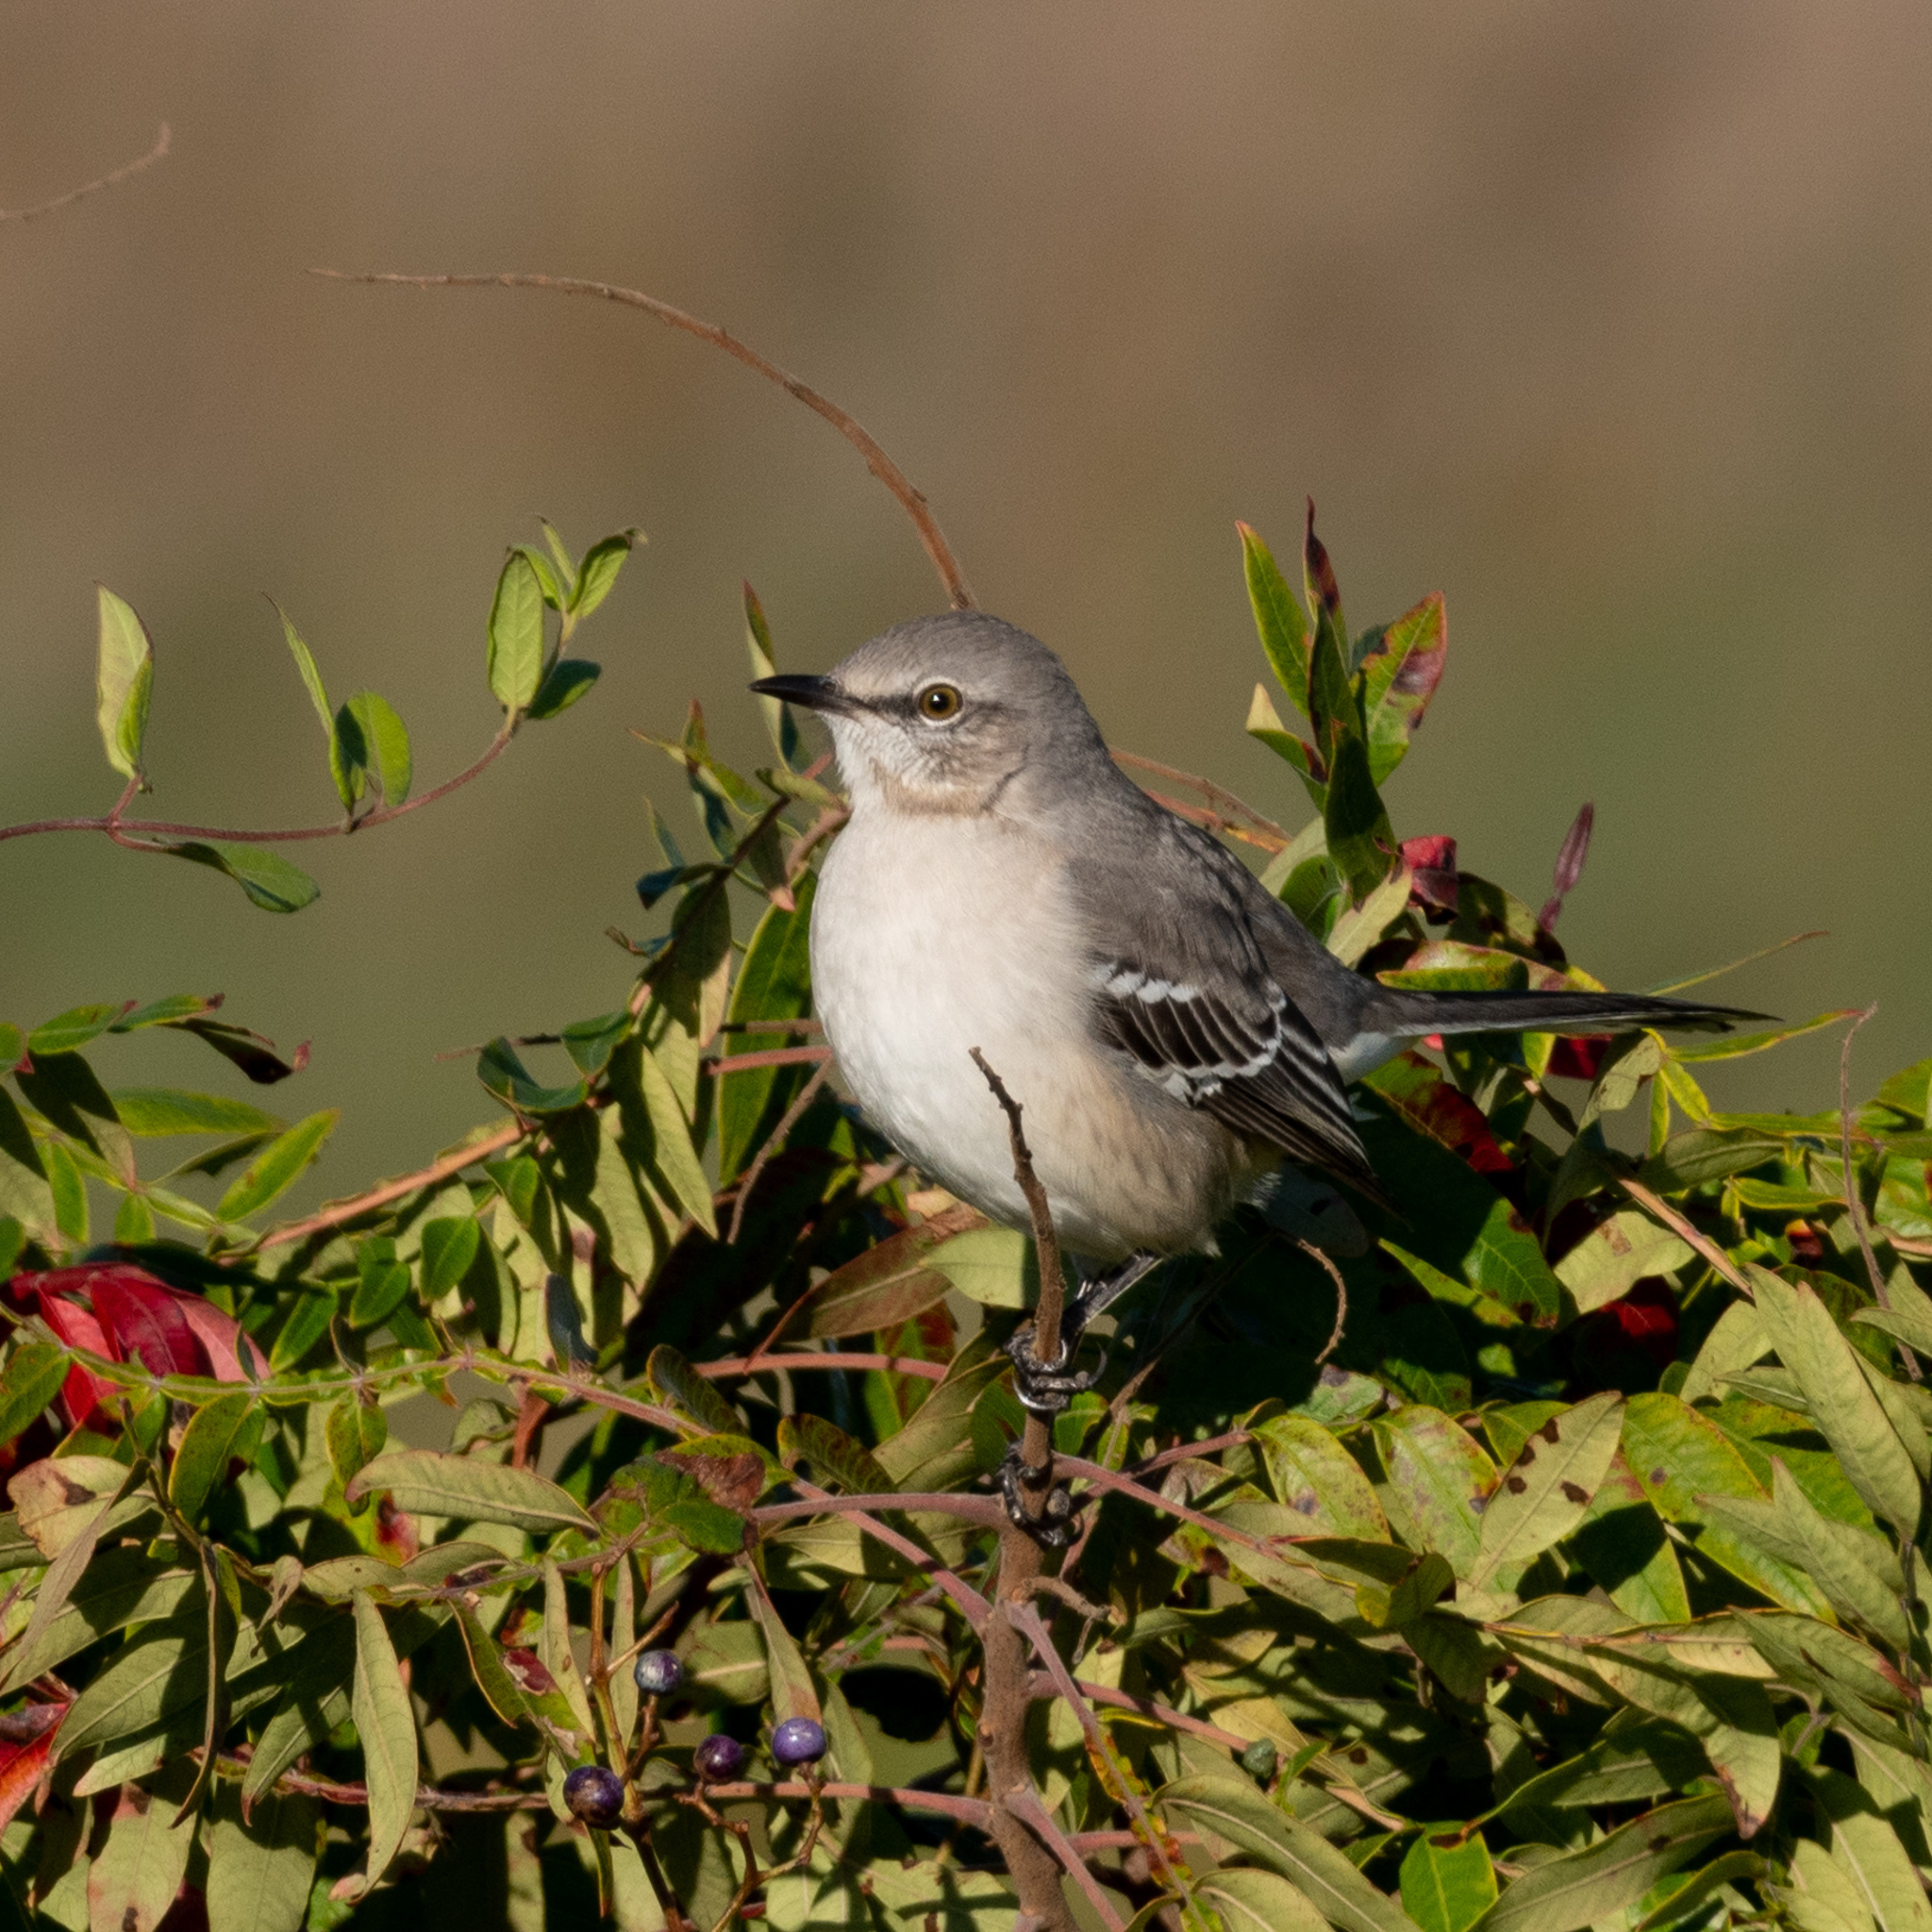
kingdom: Animalia
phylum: Chordata
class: Aves
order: Passeriformes
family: Mimidae
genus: Mimus
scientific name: Mimus polyglottos
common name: Northern mockingbird
